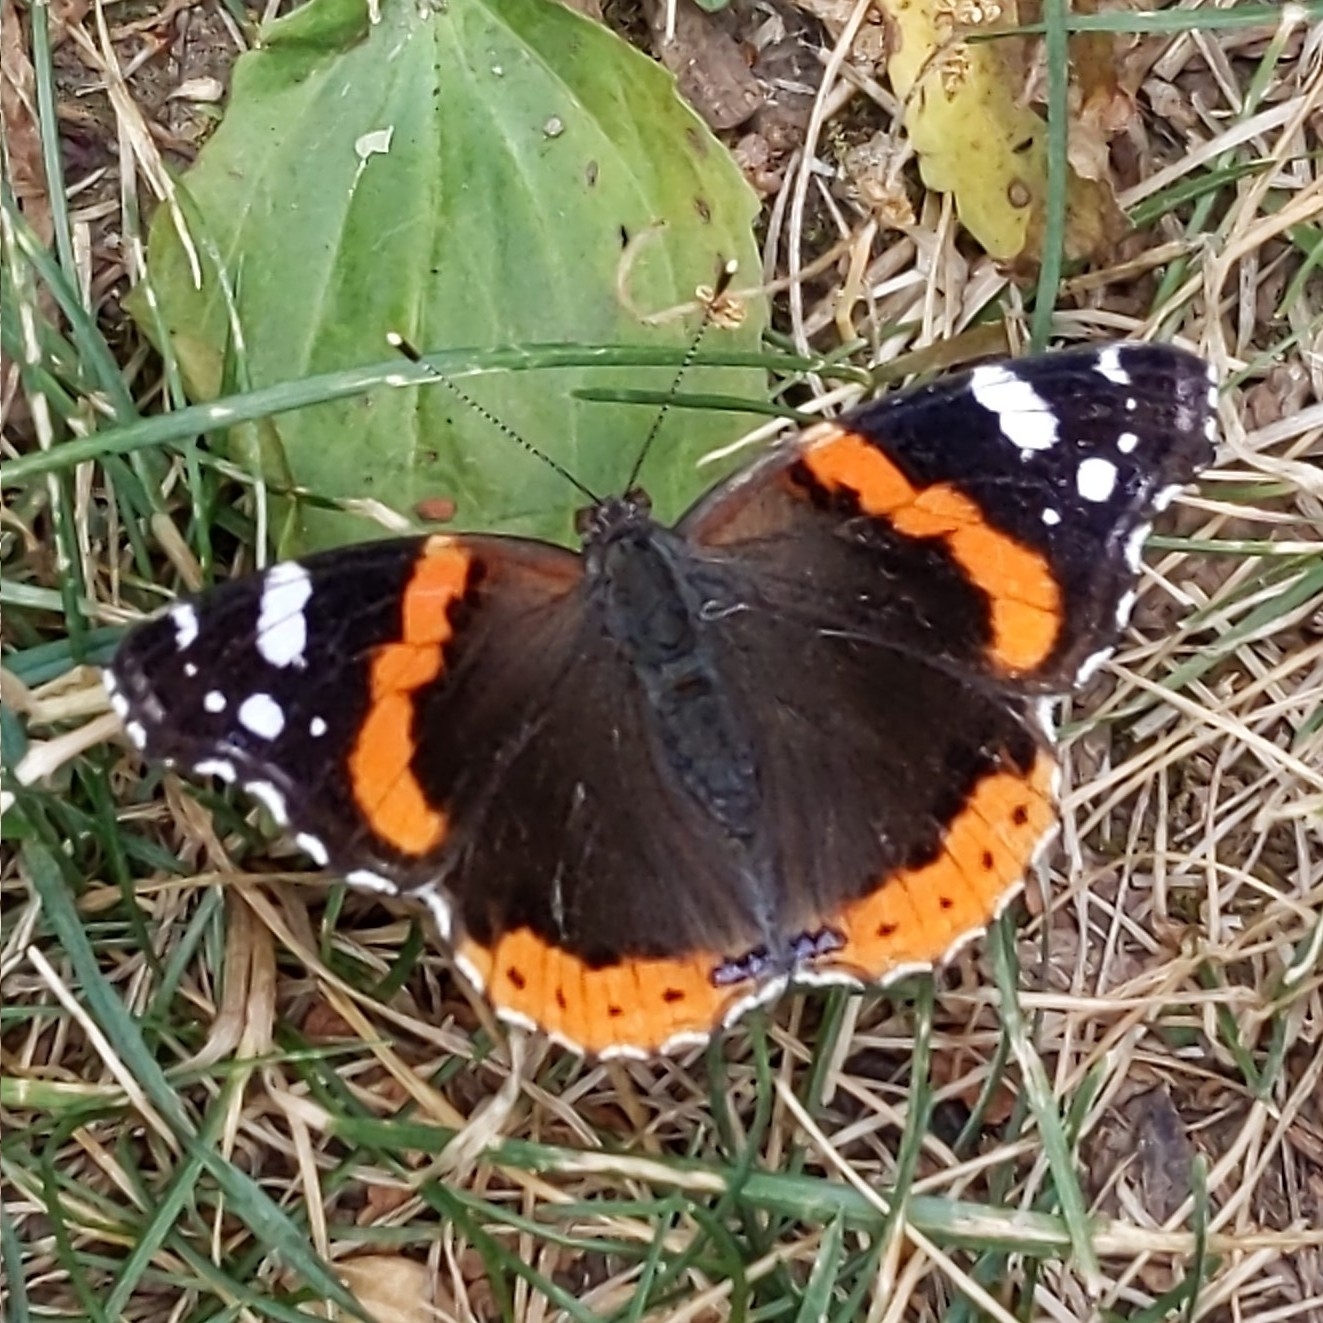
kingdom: Animalia
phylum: Arthropoda
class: Insecta
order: Lepidoptera
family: Nymphalidae
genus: Vanessa
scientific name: Vanessa atalanta
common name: Red admiral
